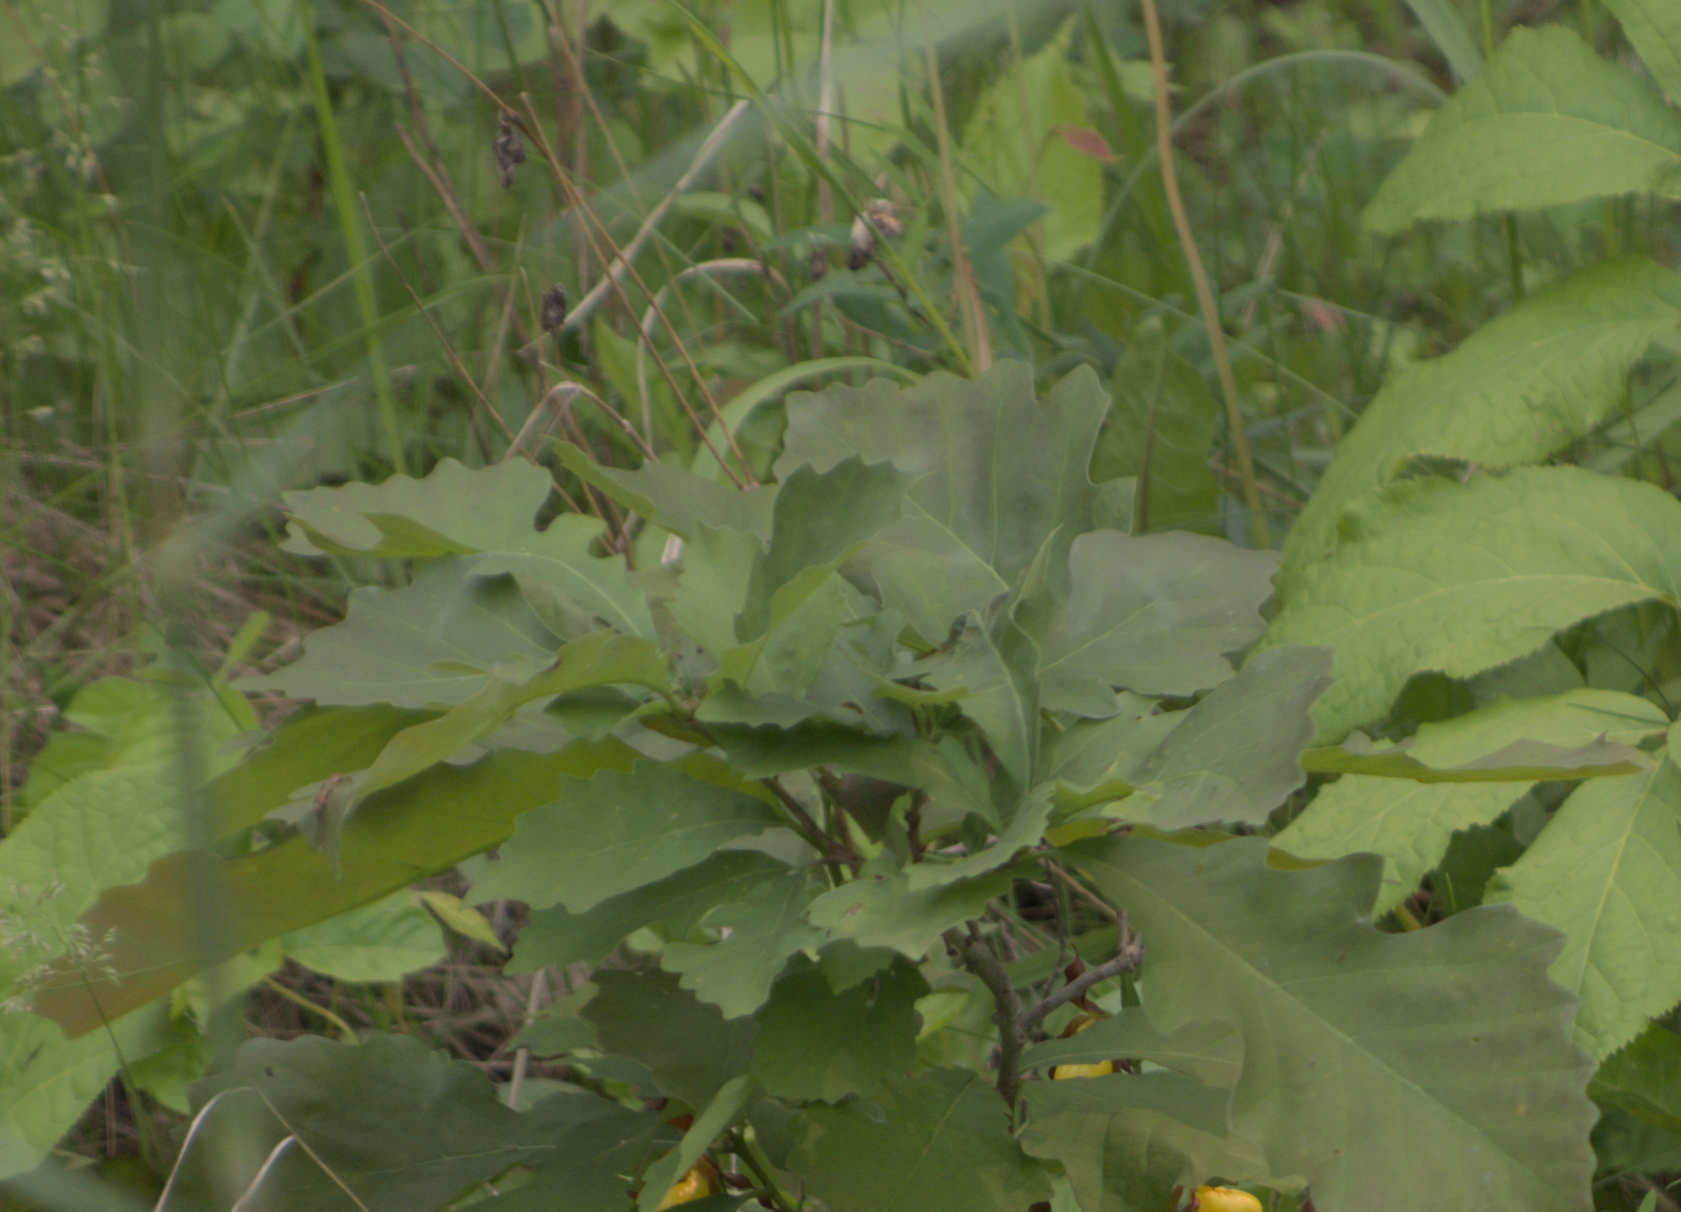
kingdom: Plantae
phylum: Tracheophyta
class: Magnoliopsida
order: Fagales
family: Fagaceae
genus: Quercus
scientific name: Quercus macrocarpa
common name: Bur oak
